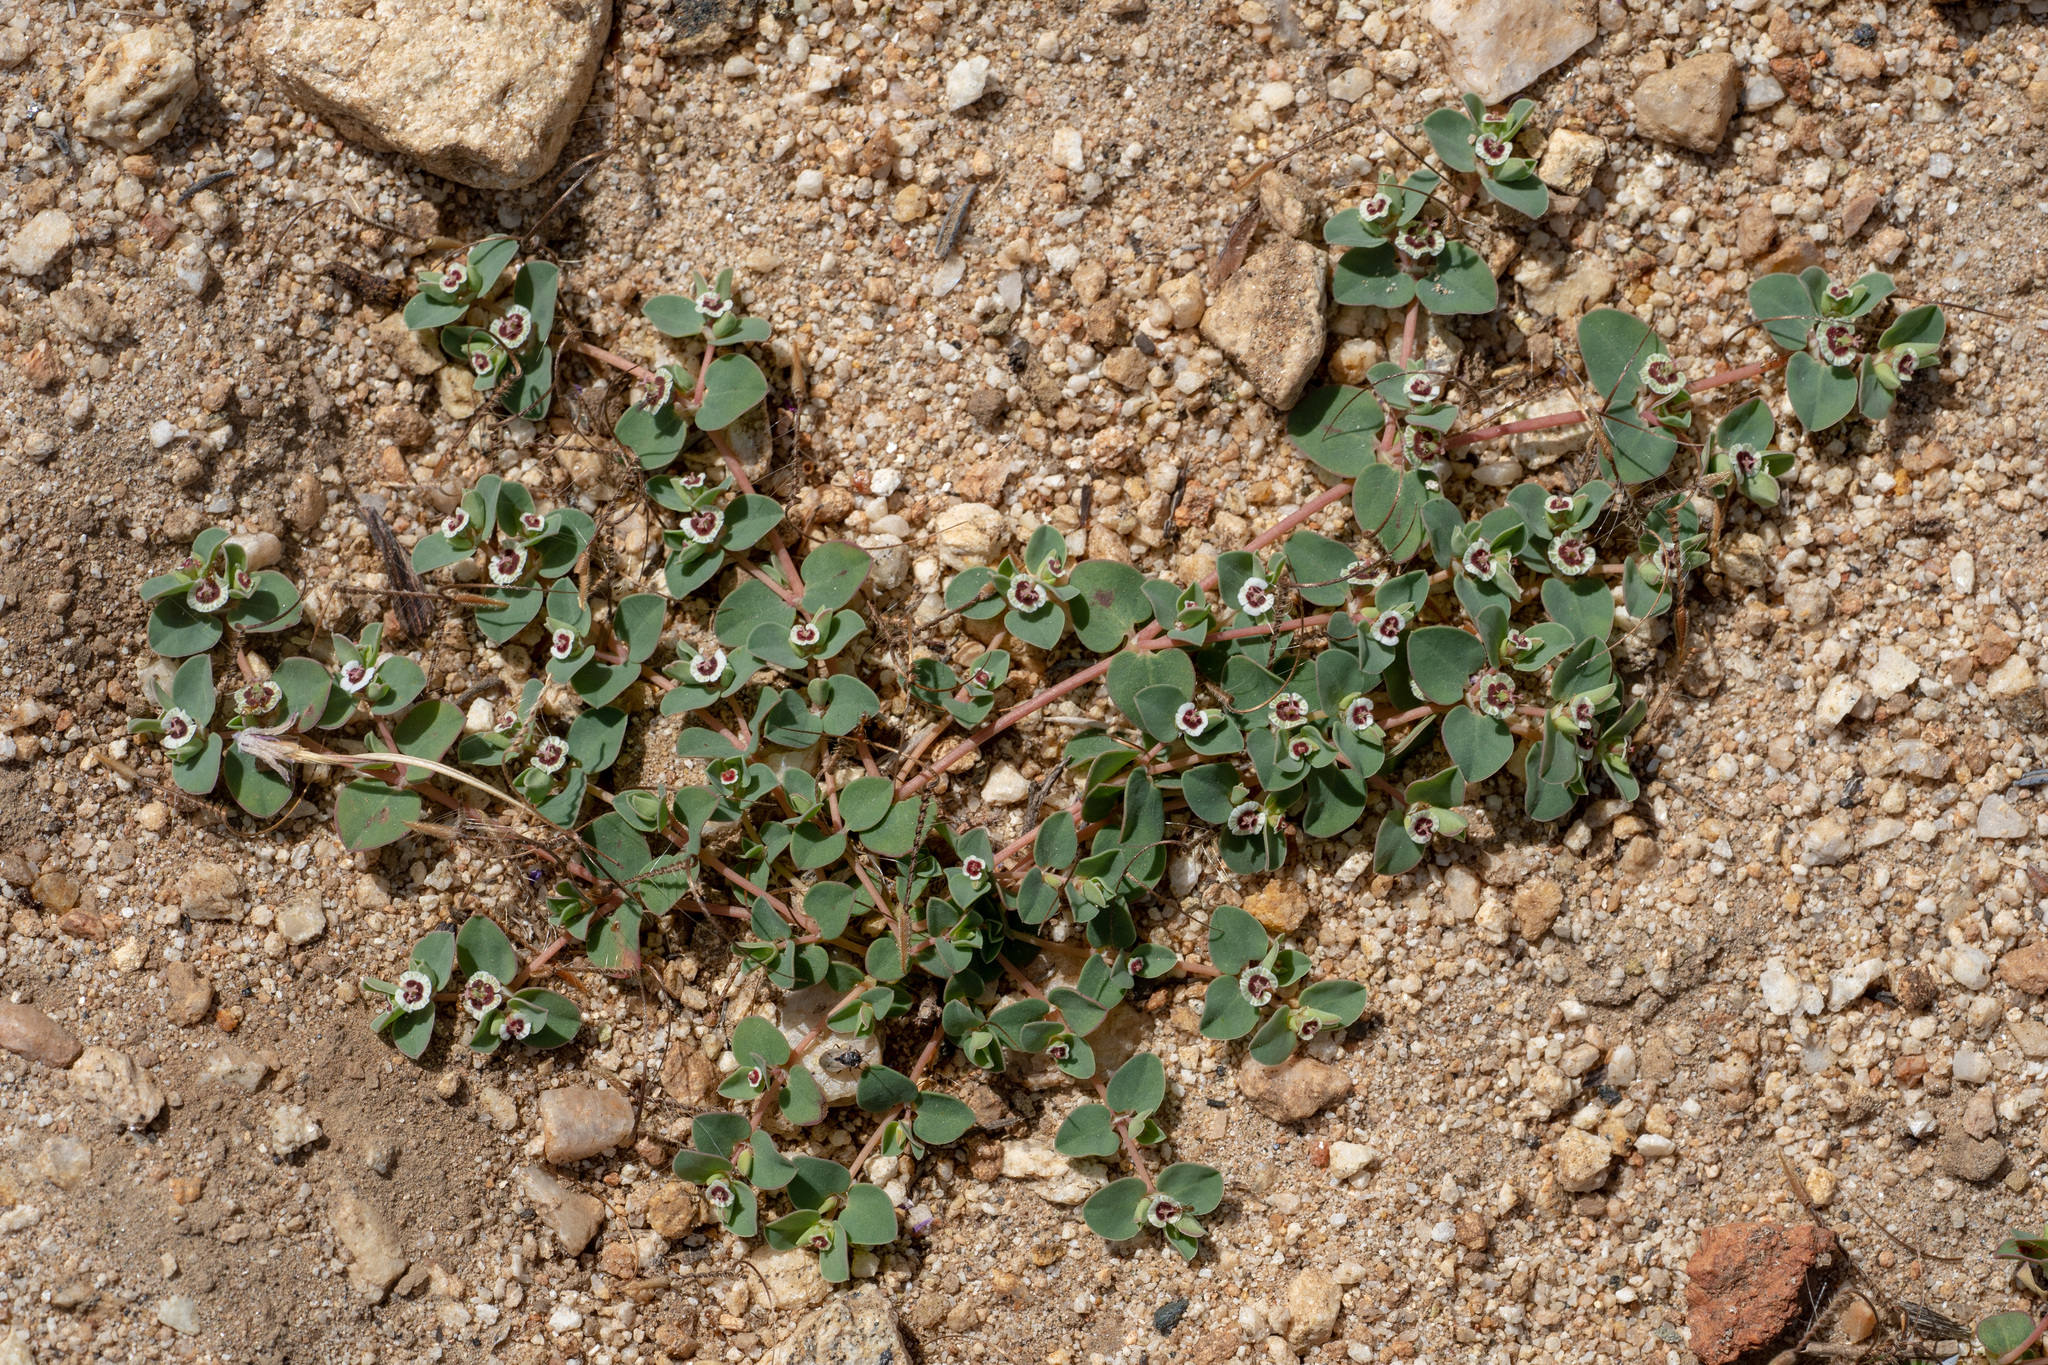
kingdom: Plantae
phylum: Tracheophyta
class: Magnoliopsida
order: Malpighiales
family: Euphorbiaceae
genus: Euphorbia
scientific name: Euphorbia albomarginata
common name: Whitemargin sandmat
